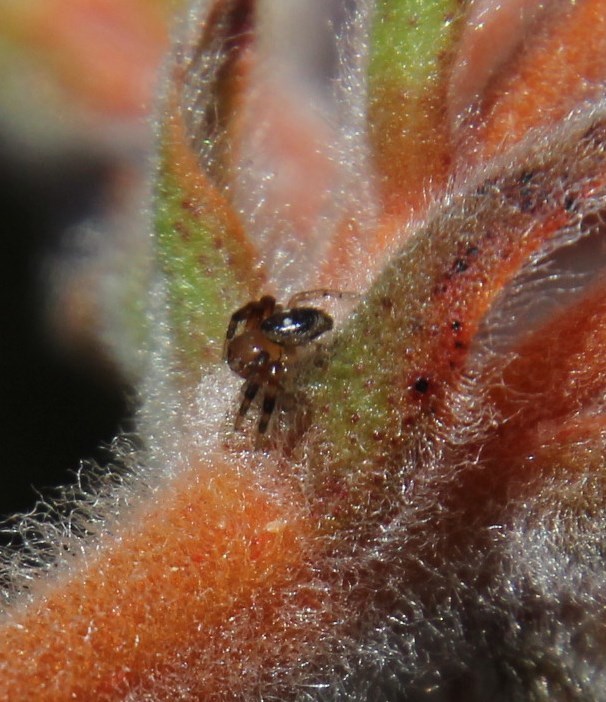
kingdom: Plantae
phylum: Tracheophyta
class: Liliopsida
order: Commelinales
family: Haemodoraceae
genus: Dilatris
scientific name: Dilatris pillansii
